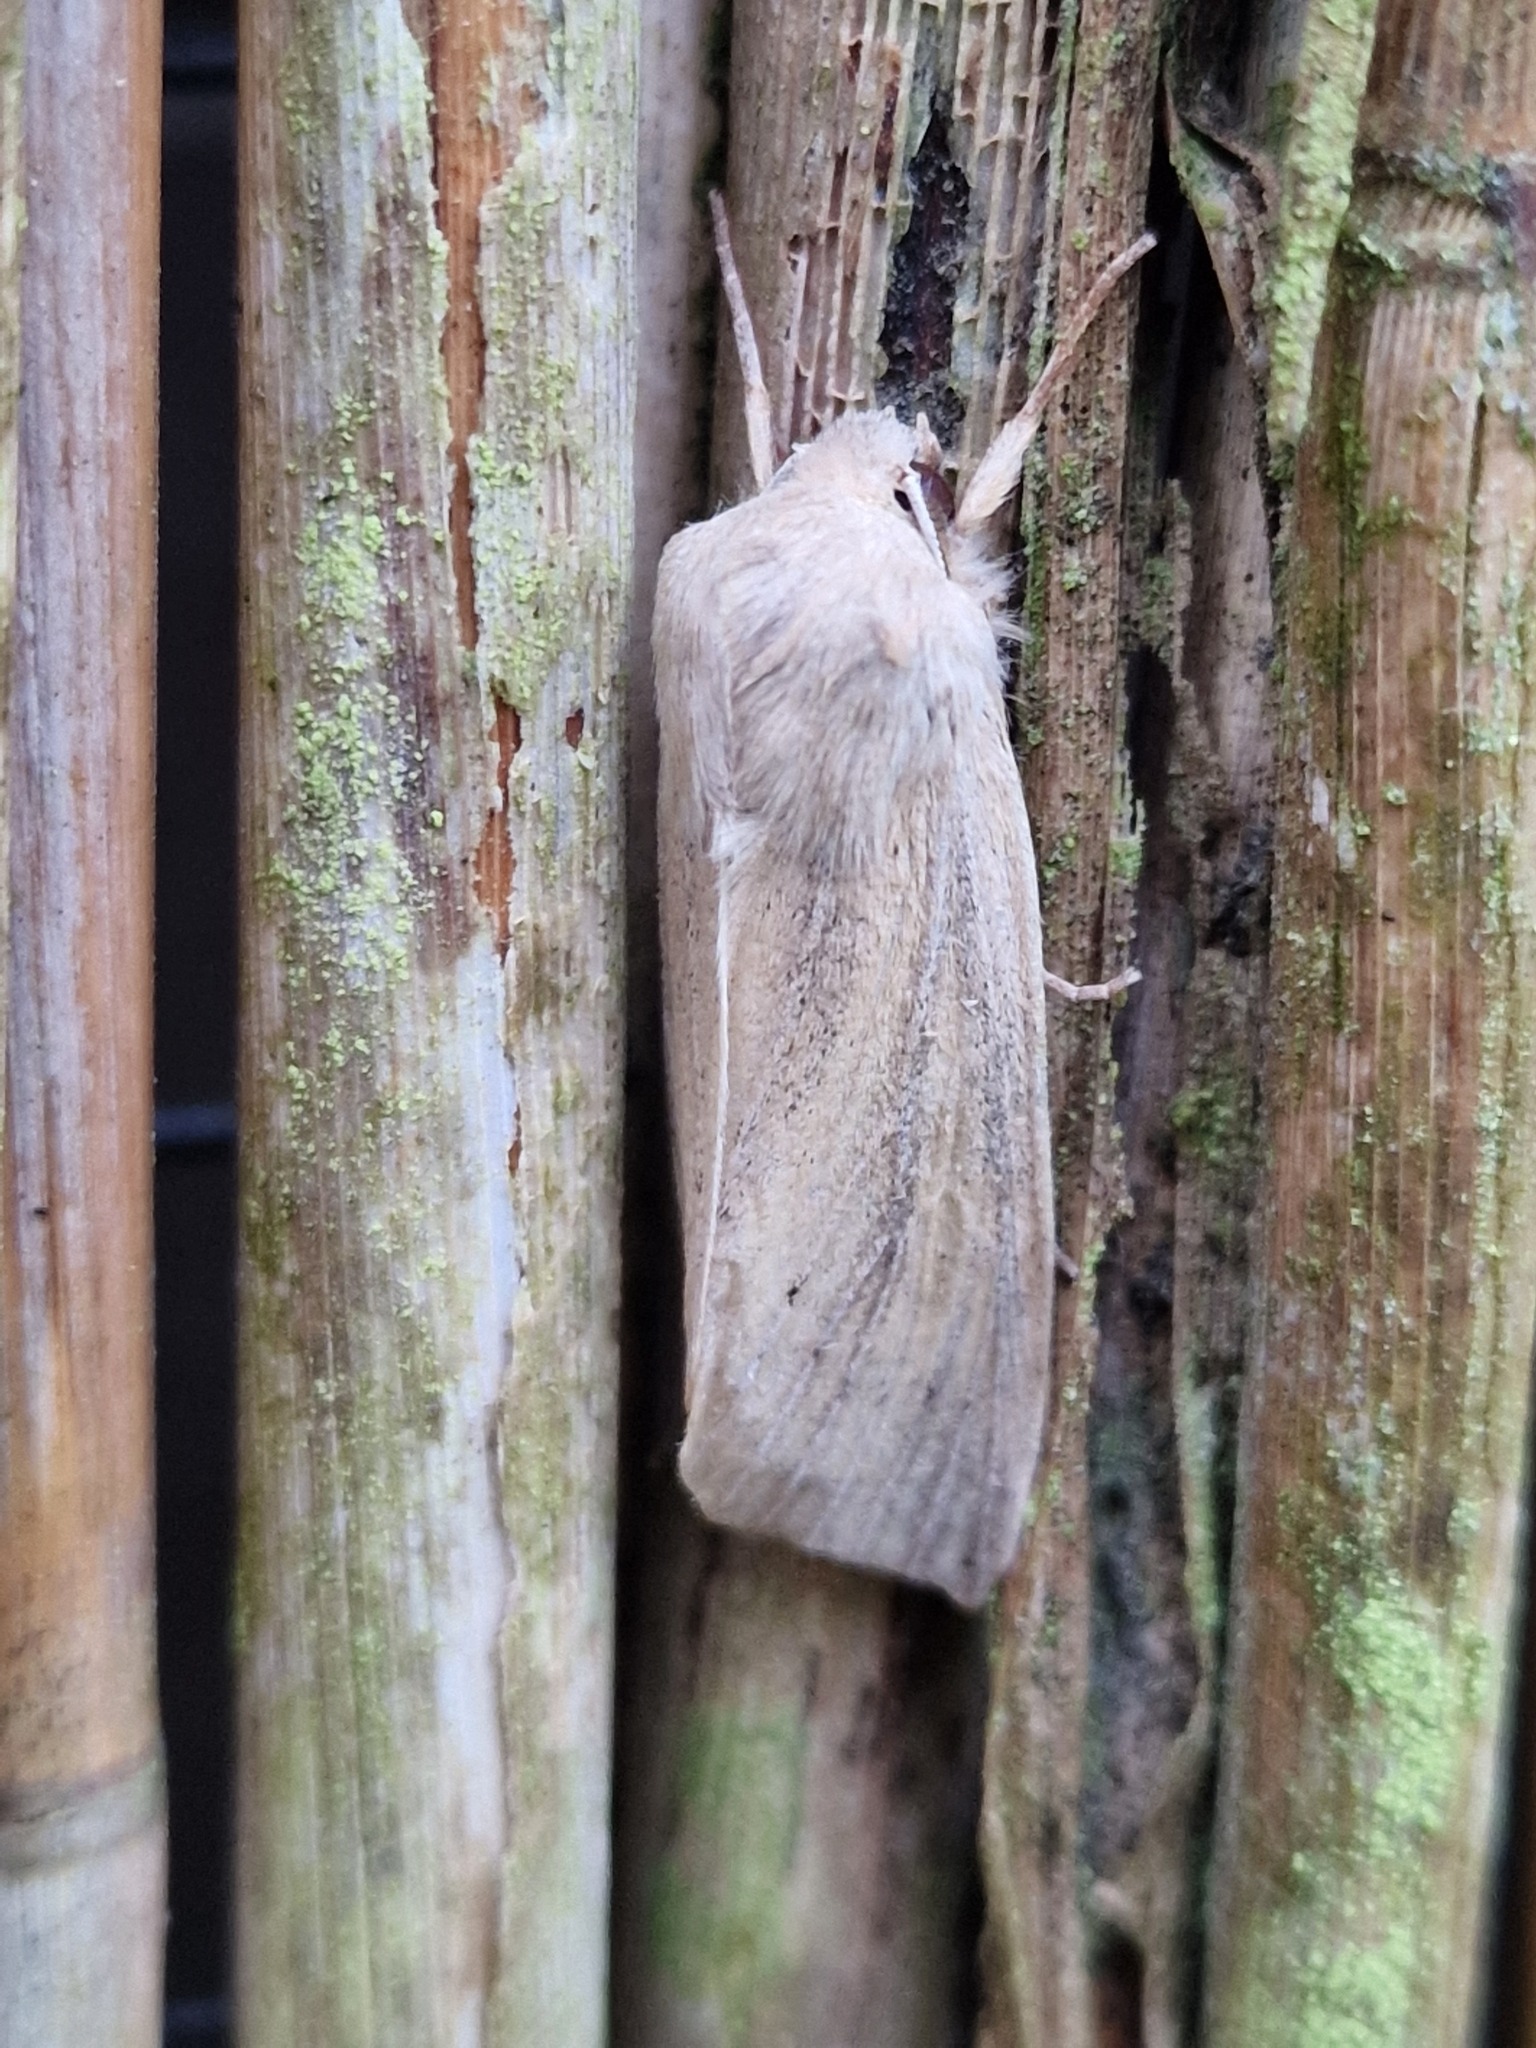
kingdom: Animalia
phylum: Arthropoda
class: Insecta
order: Lepidoptera
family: Noctuidae
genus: Rhizedra
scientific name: Rhizedra lutosa
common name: Large wainscot
